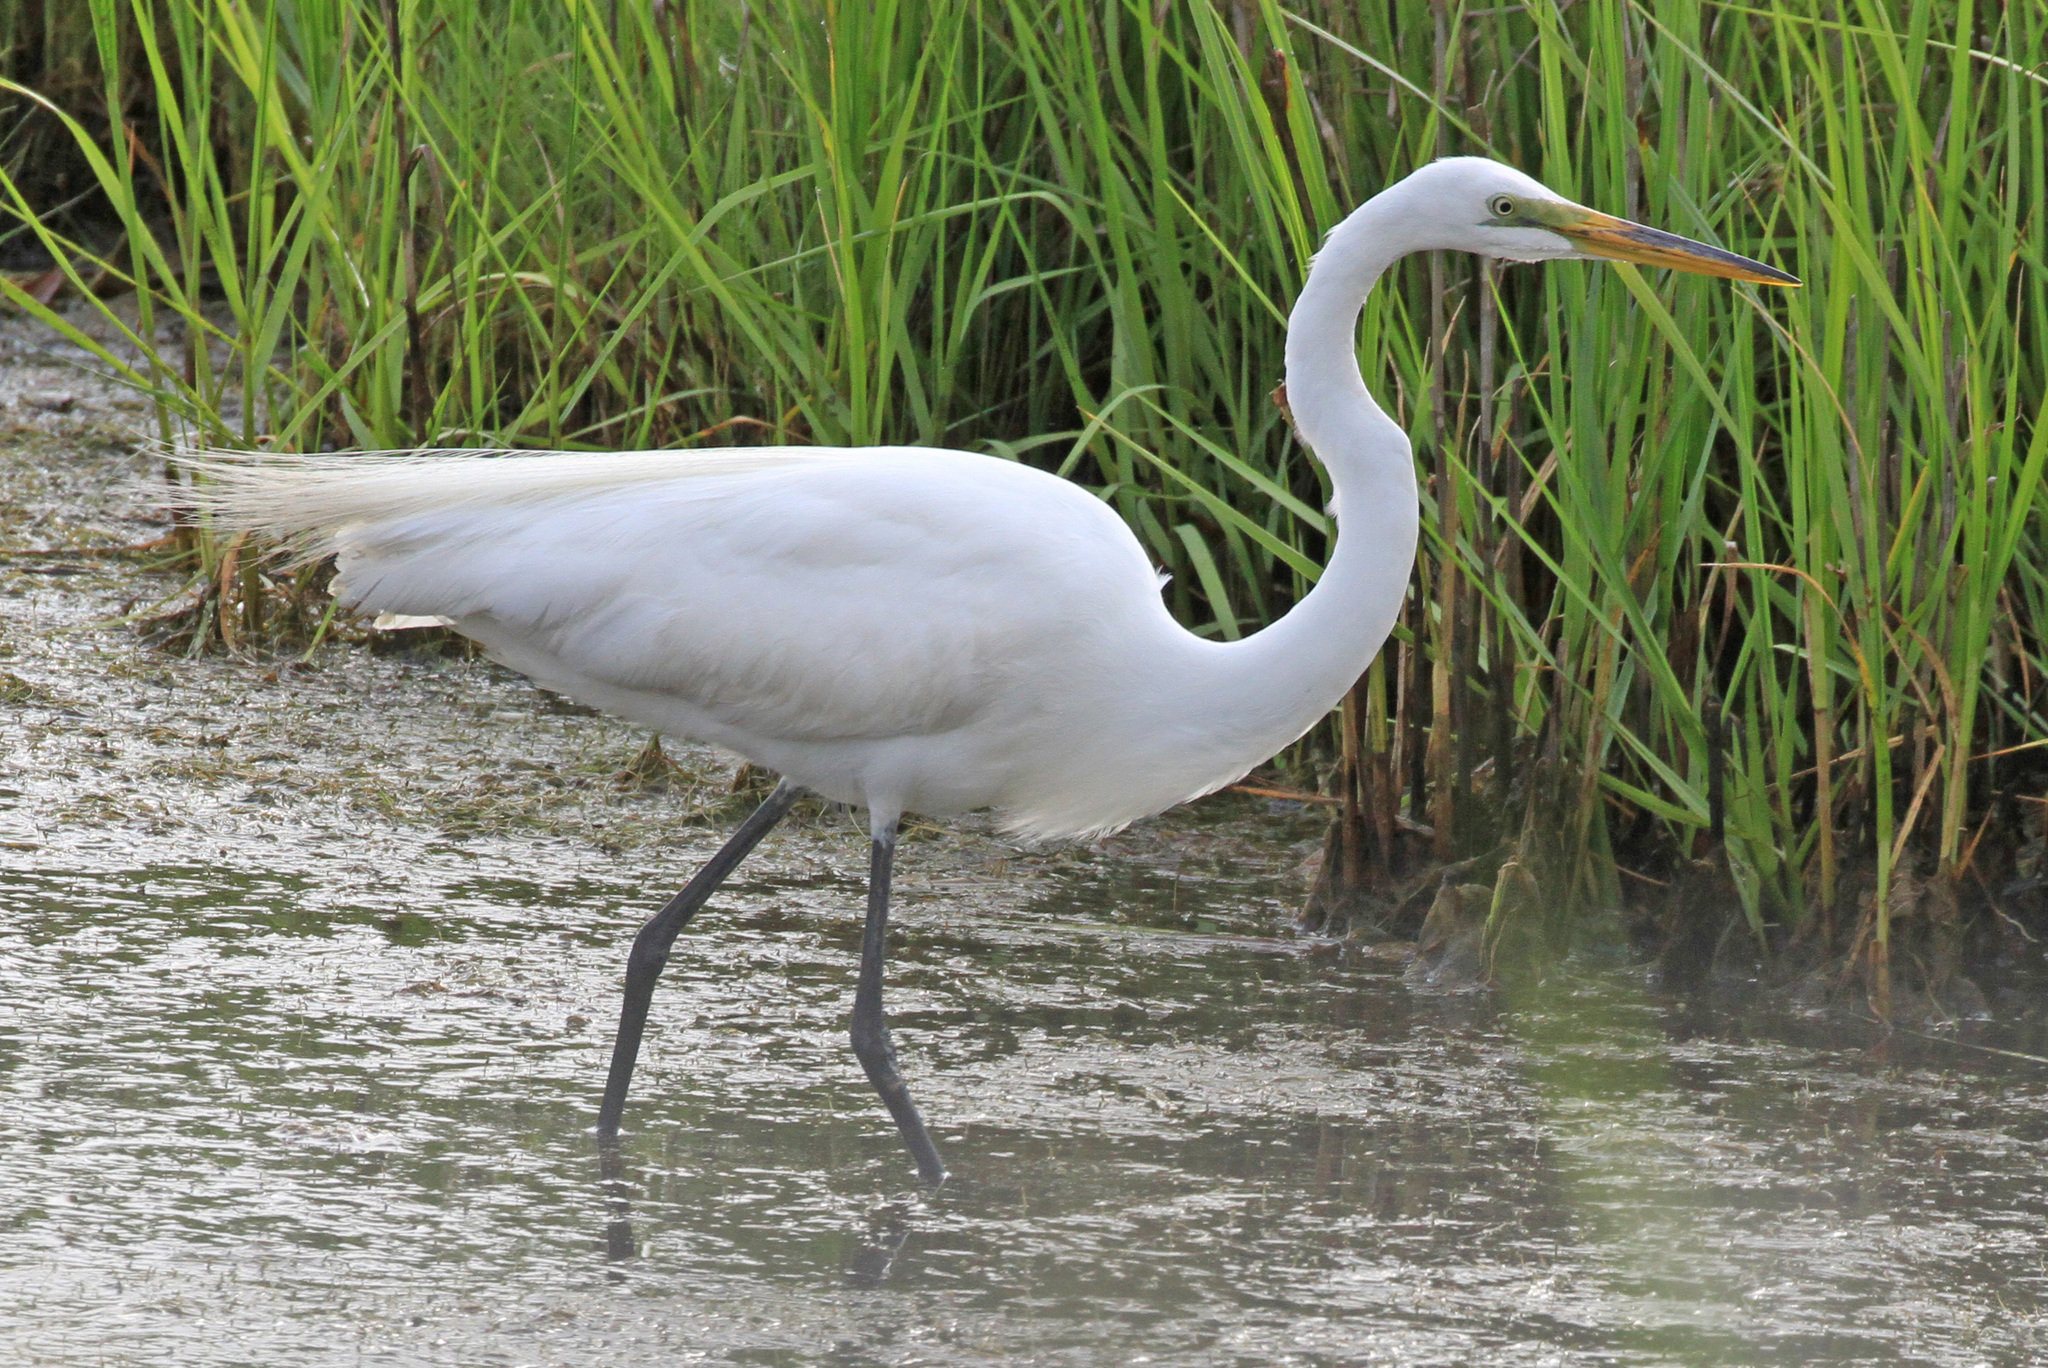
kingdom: Animalia
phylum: Chordata
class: Aves
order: Pelecaniformes
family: Ardeidae
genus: Ardea
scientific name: Ardea alba
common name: Great egret
